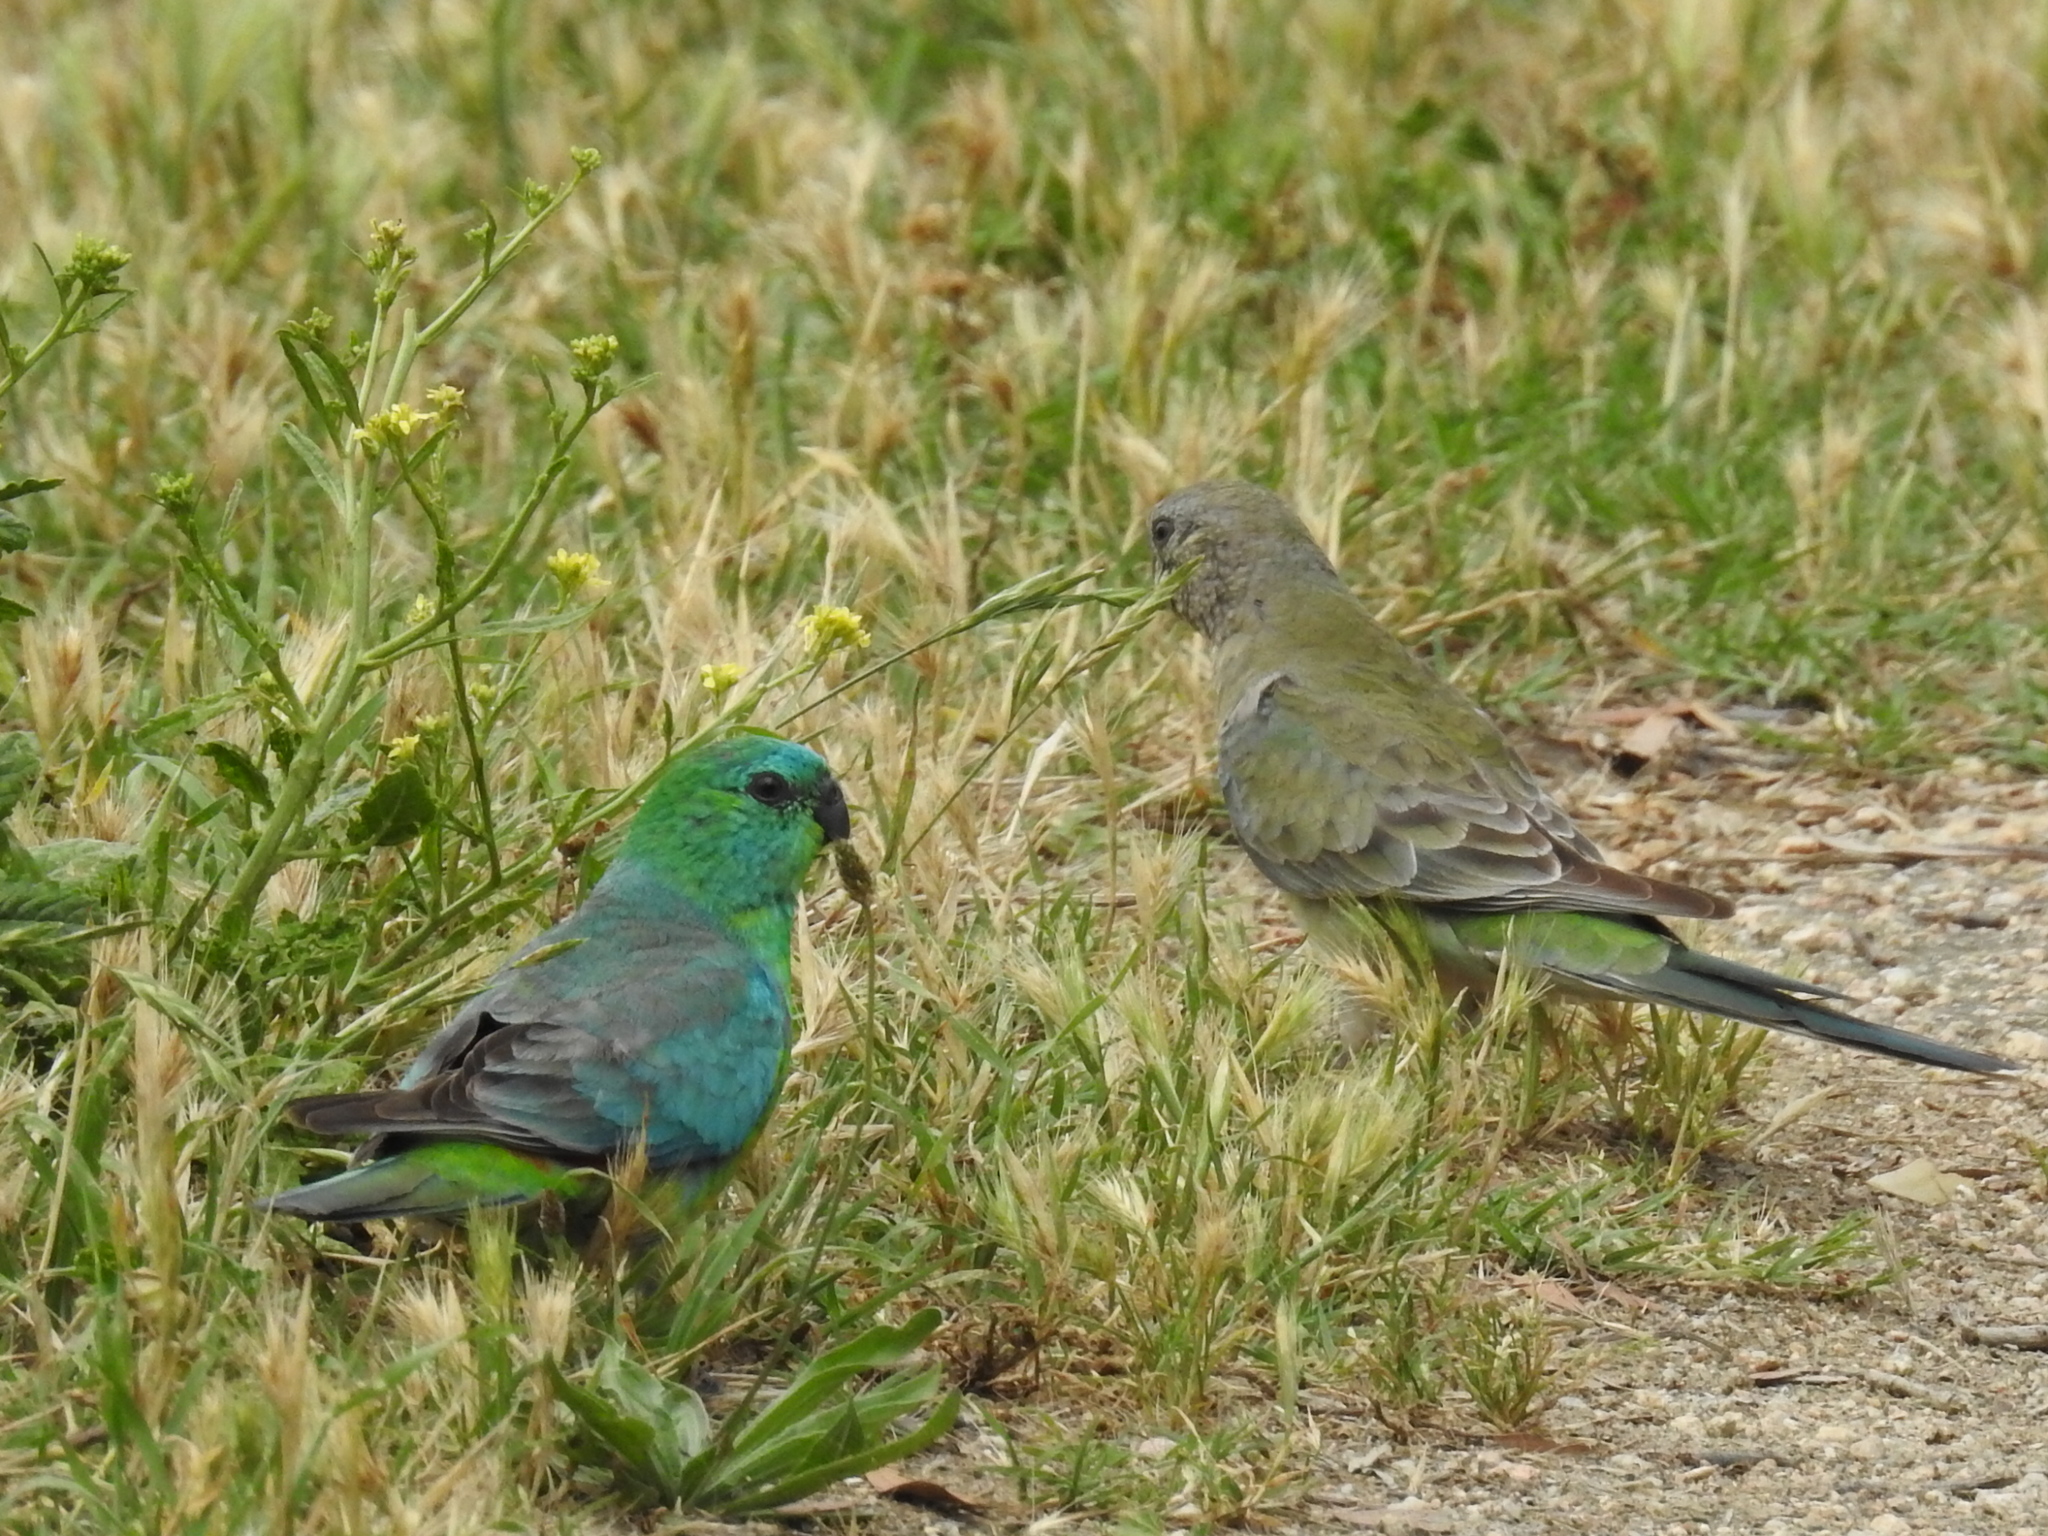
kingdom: Animalia
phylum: Chordata
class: Aves
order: Psittaciformes
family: Psittacidae
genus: Psephotus
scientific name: Psephotus haematonotus
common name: Red-rumped parrot
